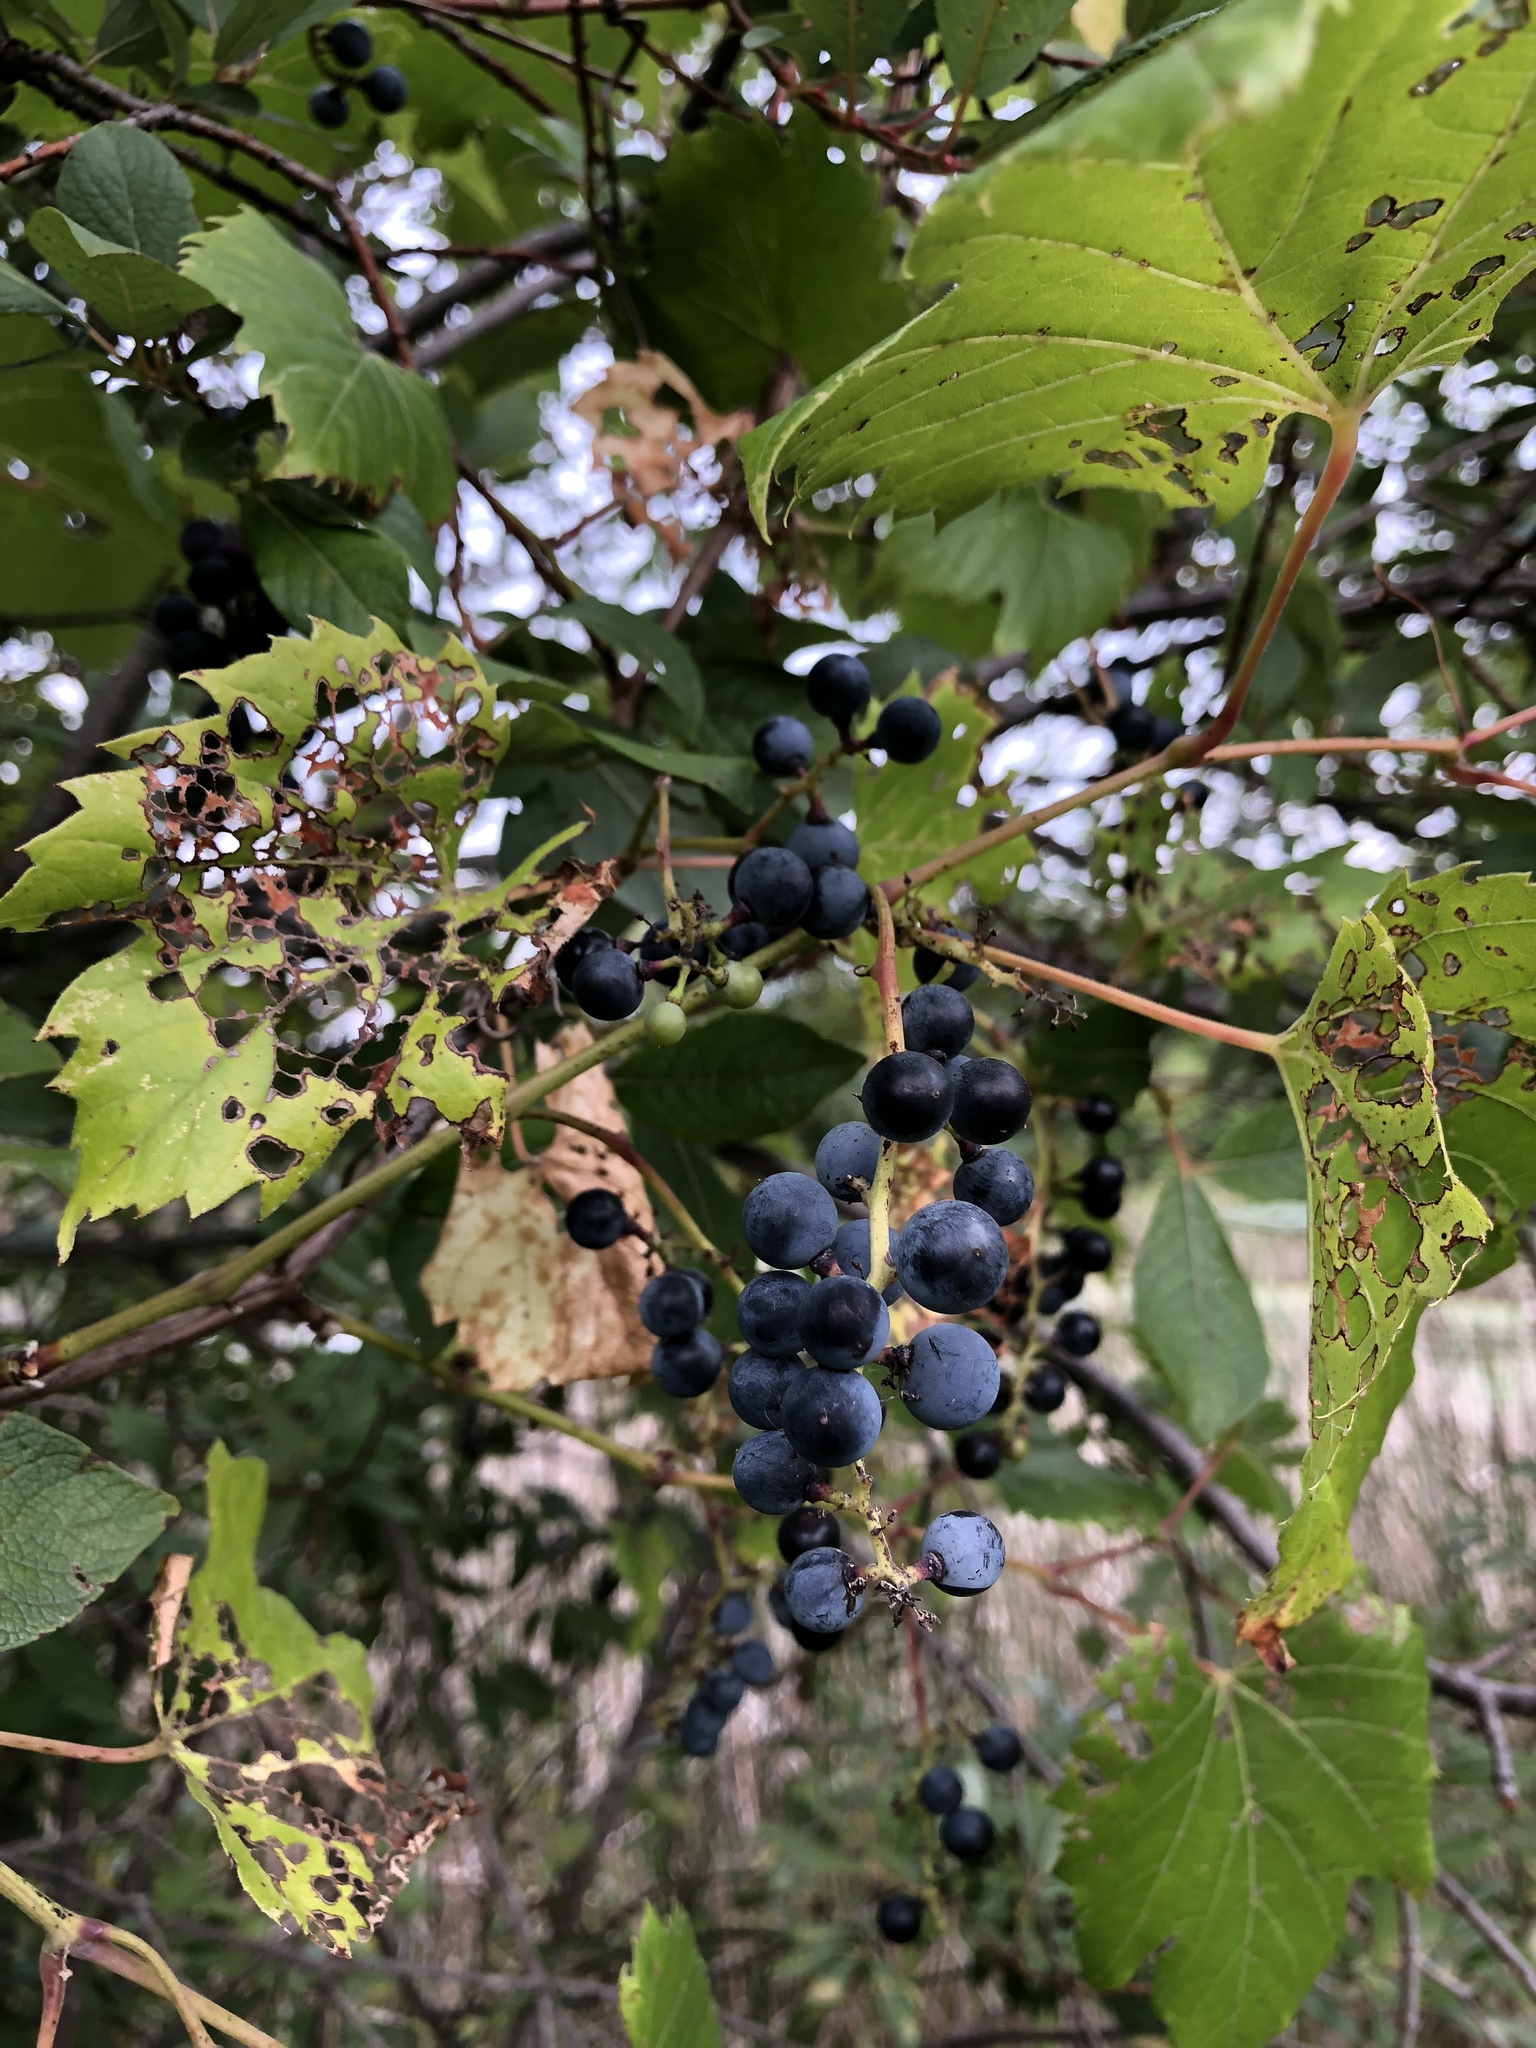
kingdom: Plantae
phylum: Tracheophyta
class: Magnoliopsida
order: Vitales
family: Vitaceae
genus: Vitis
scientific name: Vitis riparia
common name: Frost grape
